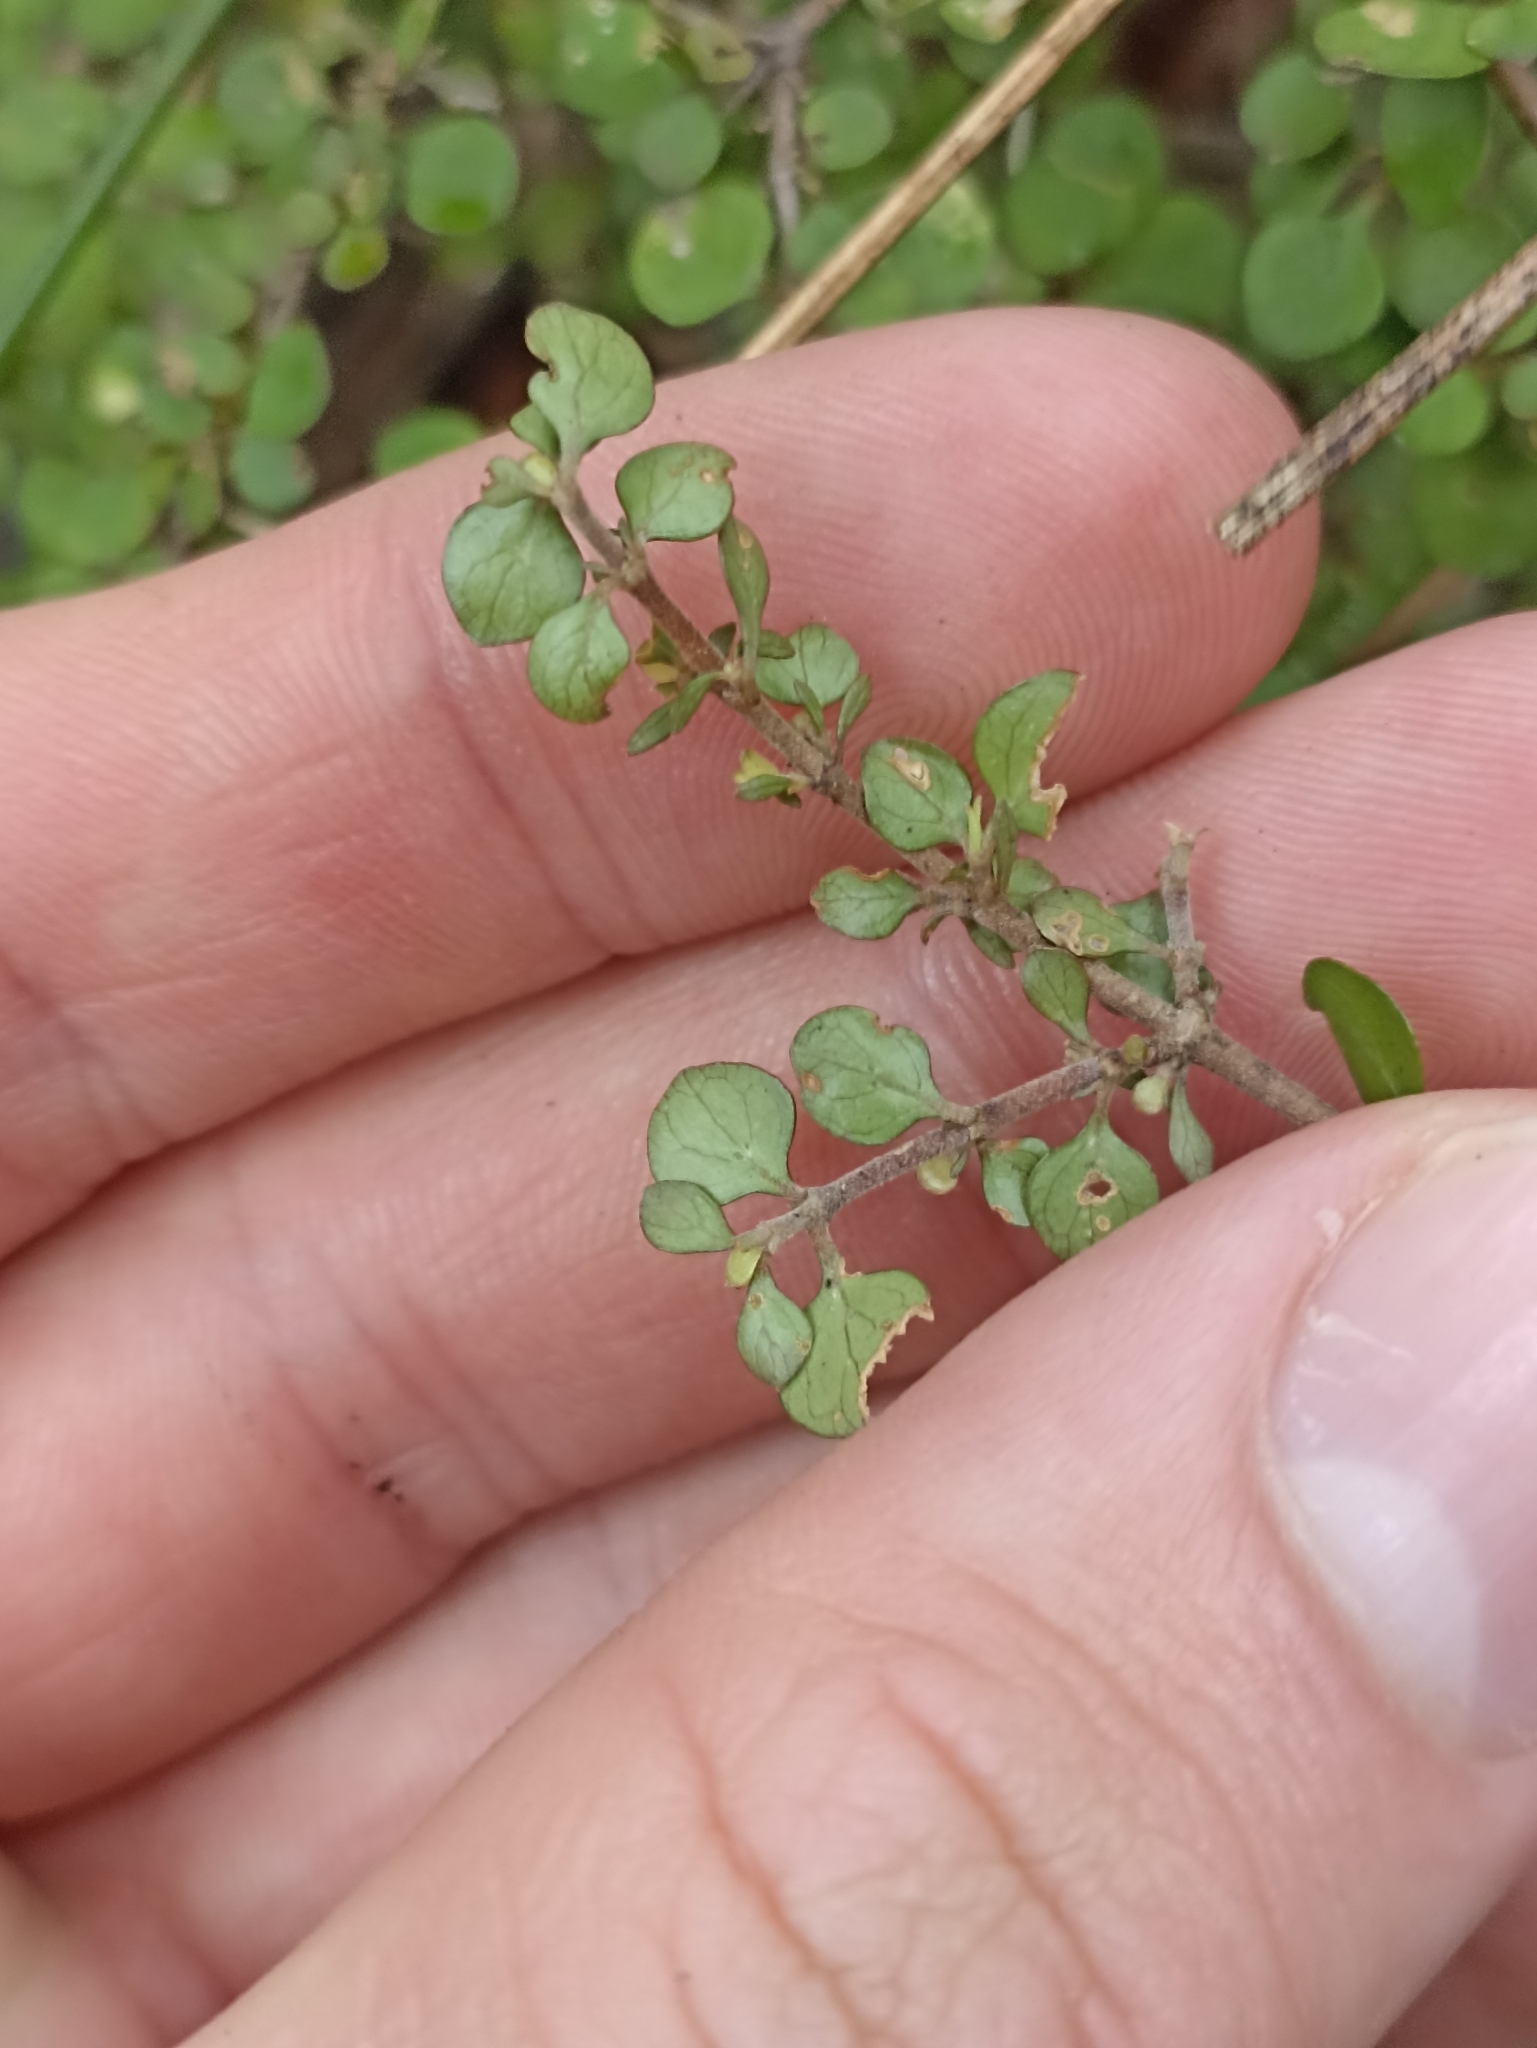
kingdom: Plantae
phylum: Tracheophyta
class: Magnoliopsida
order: Gentianales
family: Rubiaceae
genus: Coprosma
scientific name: Coprosma rhamnoides
